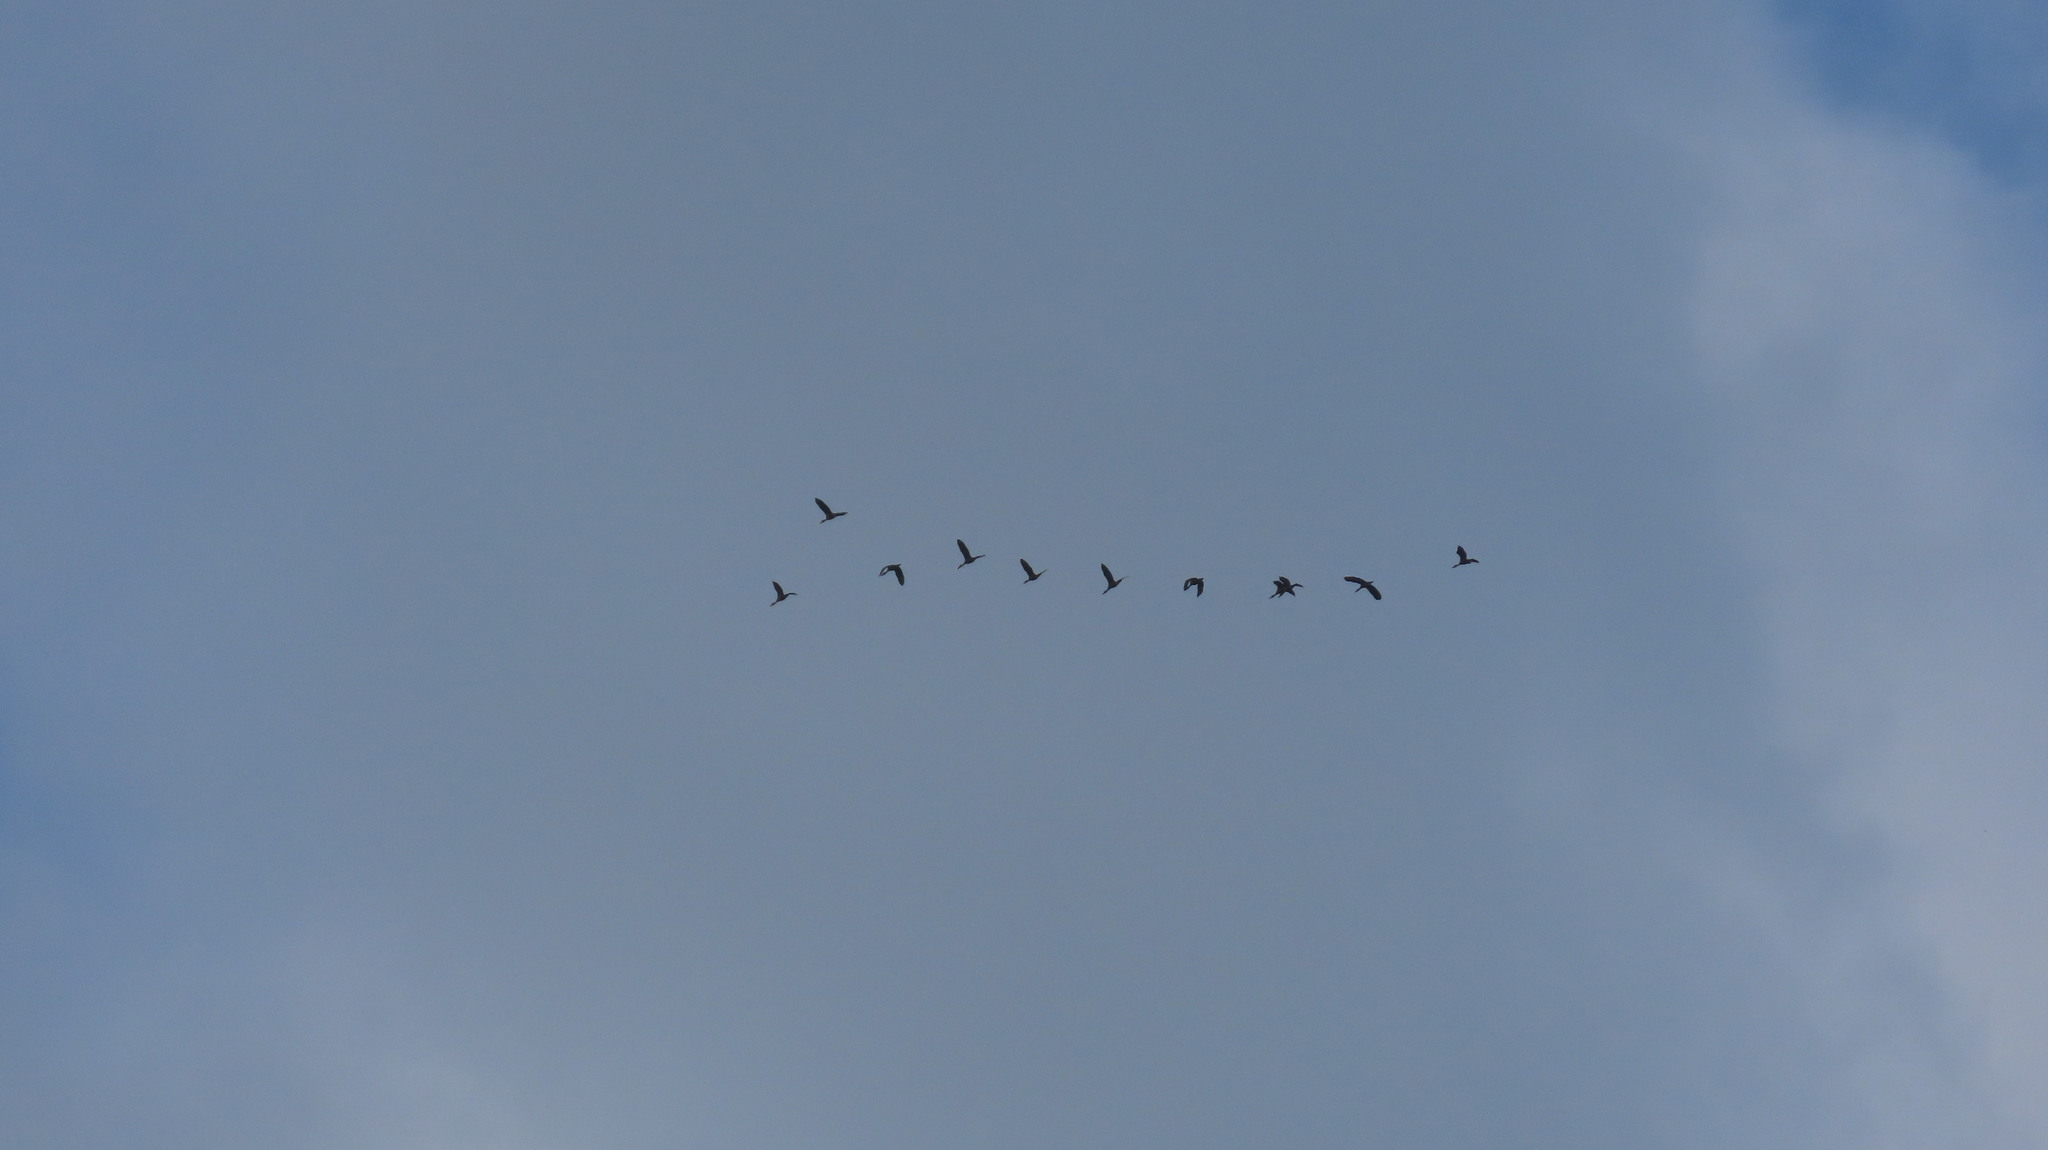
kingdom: Animalia
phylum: Chordata
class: Aves
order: Anseriformes
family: Anatidae
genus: Dendrocygna
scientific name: Dendrocygna javanica
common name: Lesser whistling-duck
